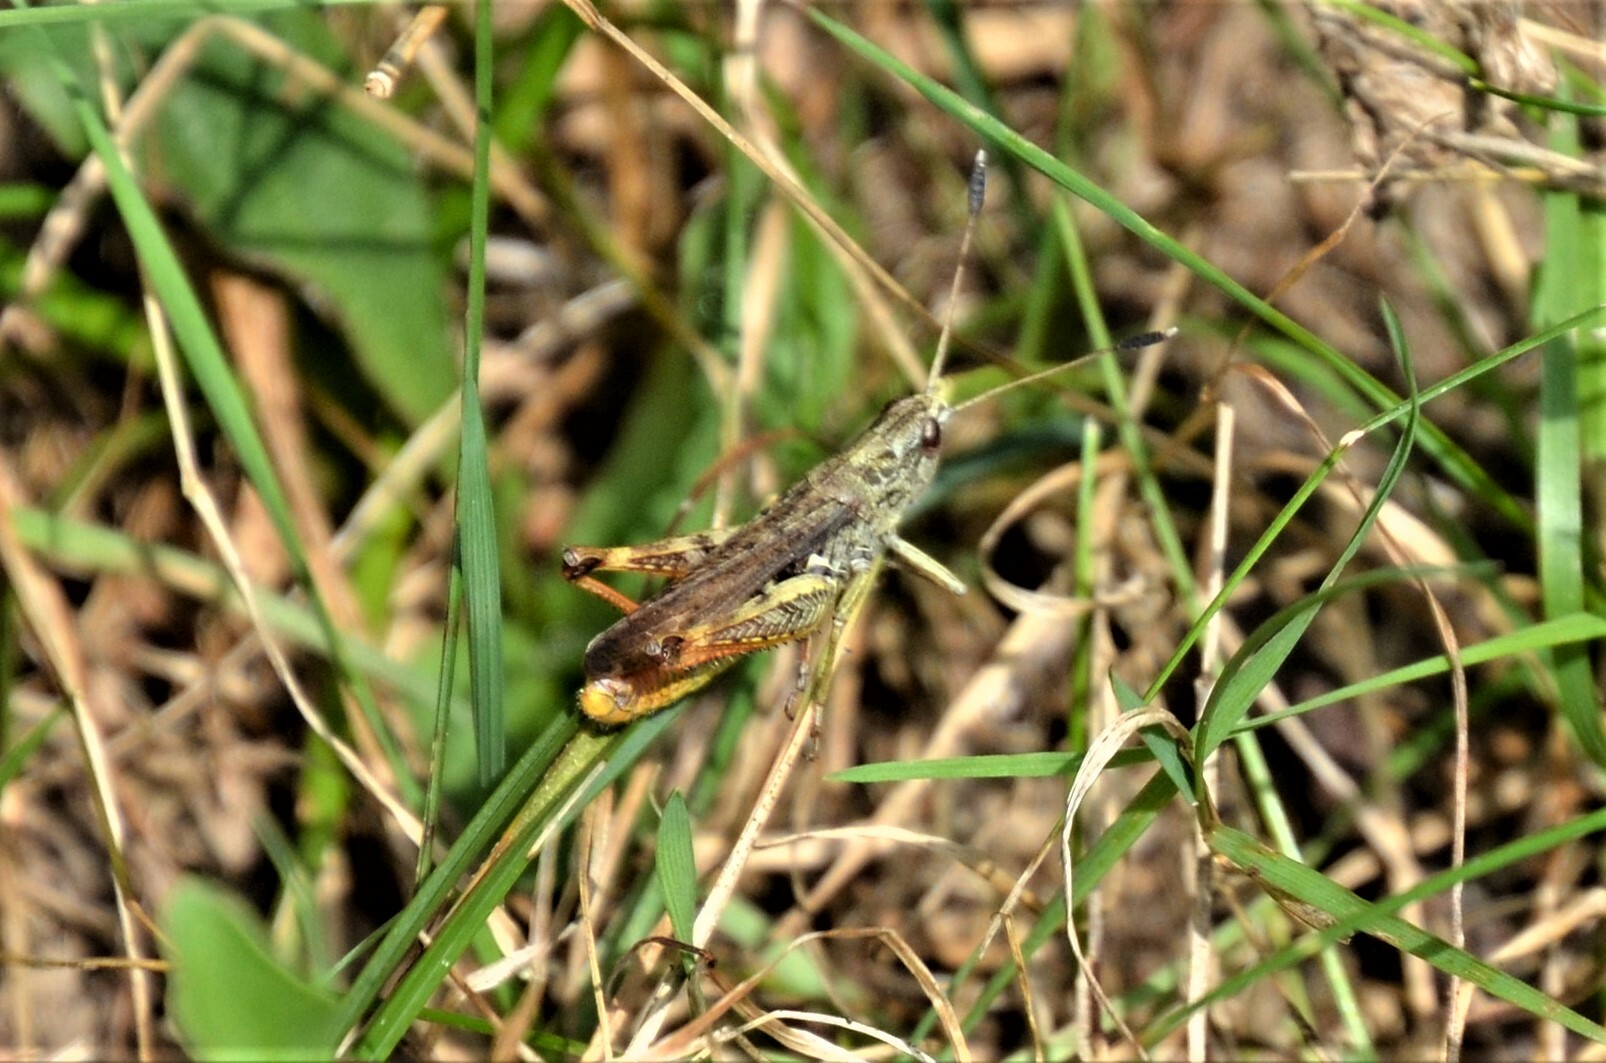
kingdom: Animalia
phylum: Arthropoda
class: Insecta
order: Orthoptera
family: Acrididae
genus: Gomphocerippus
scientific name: Gomphocerippus rufus
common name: Rufous grasshopper
